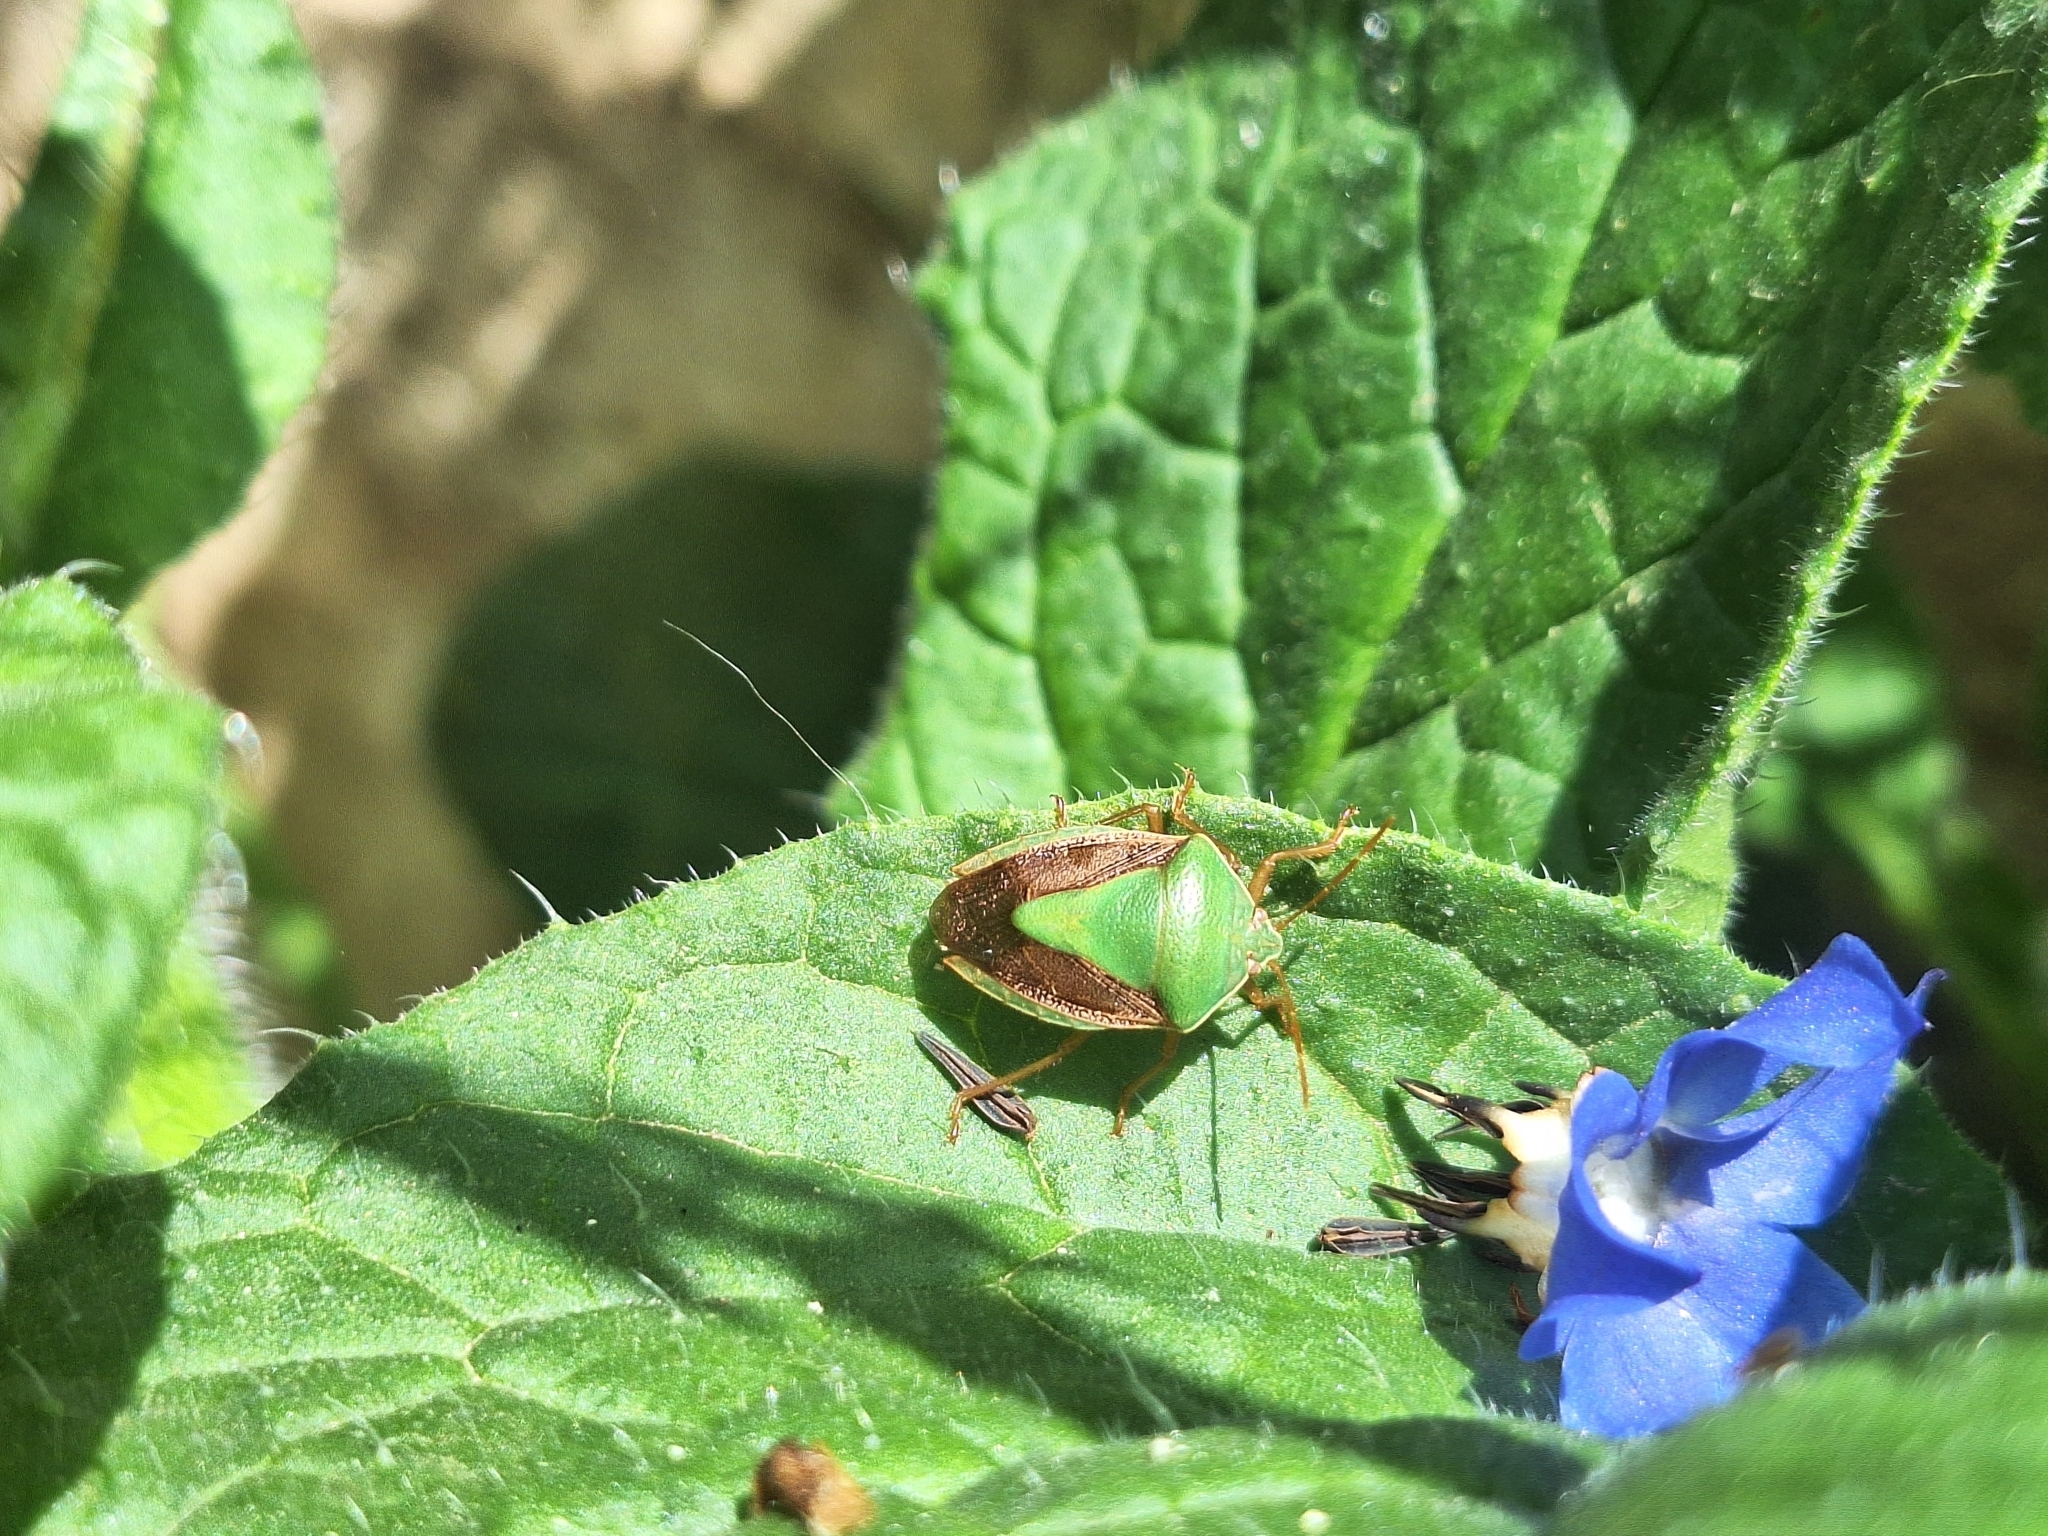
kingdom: Animalia
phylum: Arthropoda
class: Insecta
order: Hemiptera
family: Pentatomidae
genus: Edessa
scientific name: Edessa meditabunda
